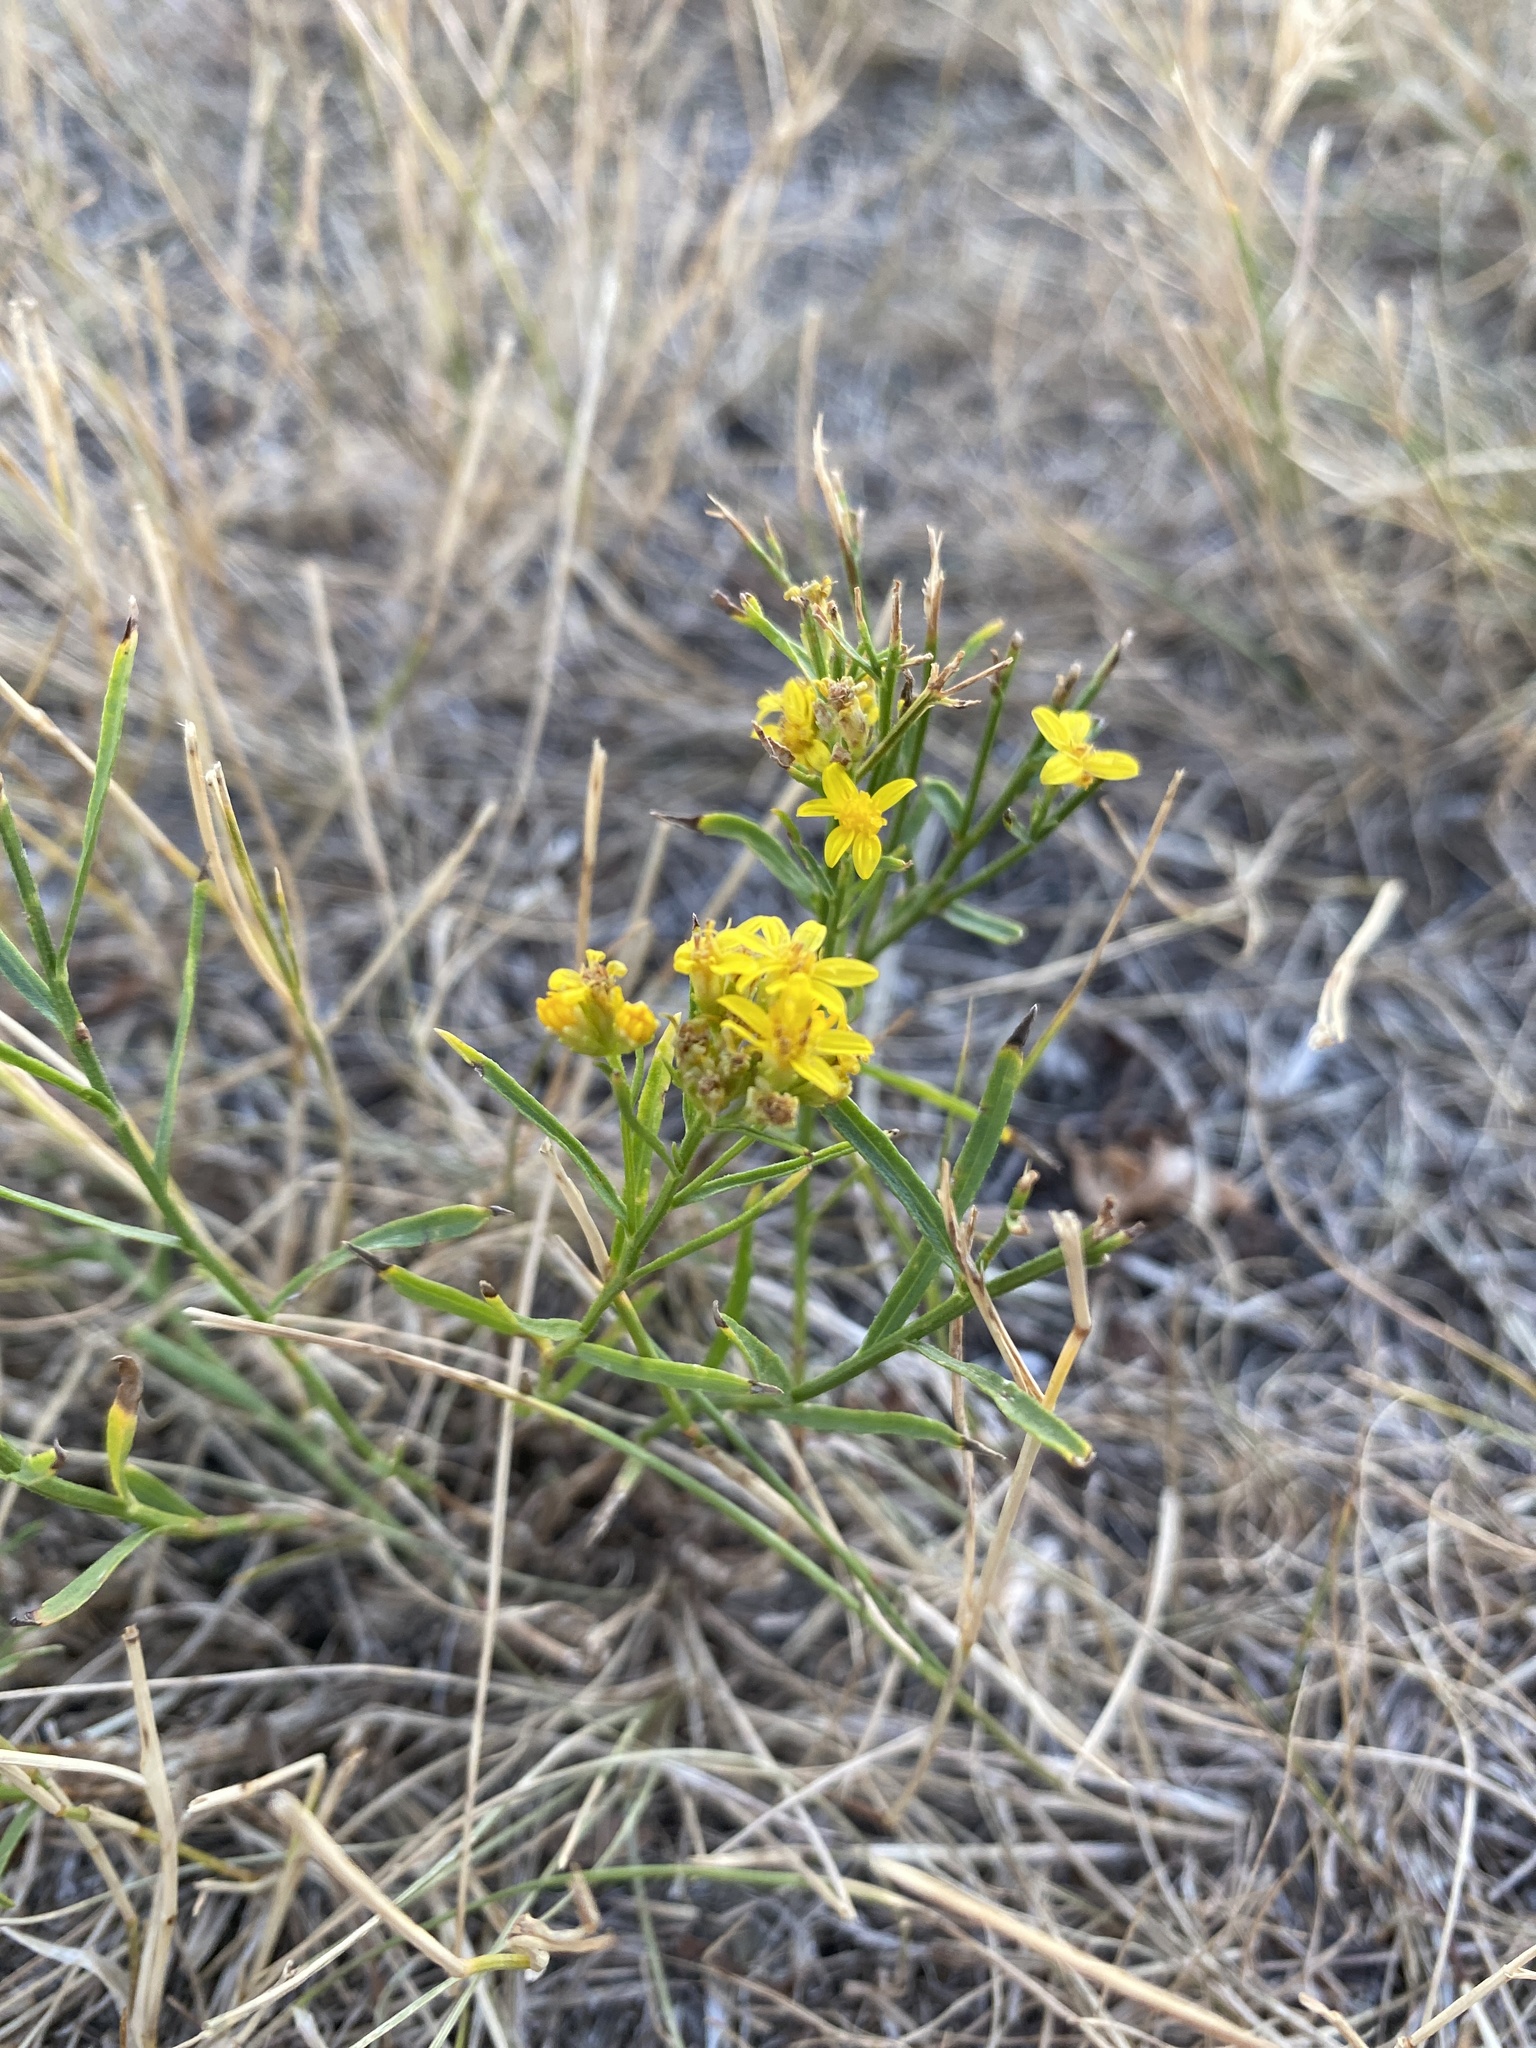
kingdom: Plantae
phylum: Tracheophyta
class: Magnoliopsida
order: Asterales
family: Asteraceae
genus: Gutierrezia
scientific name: Gutierrezia sarothrae
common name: Broom snakeweed
